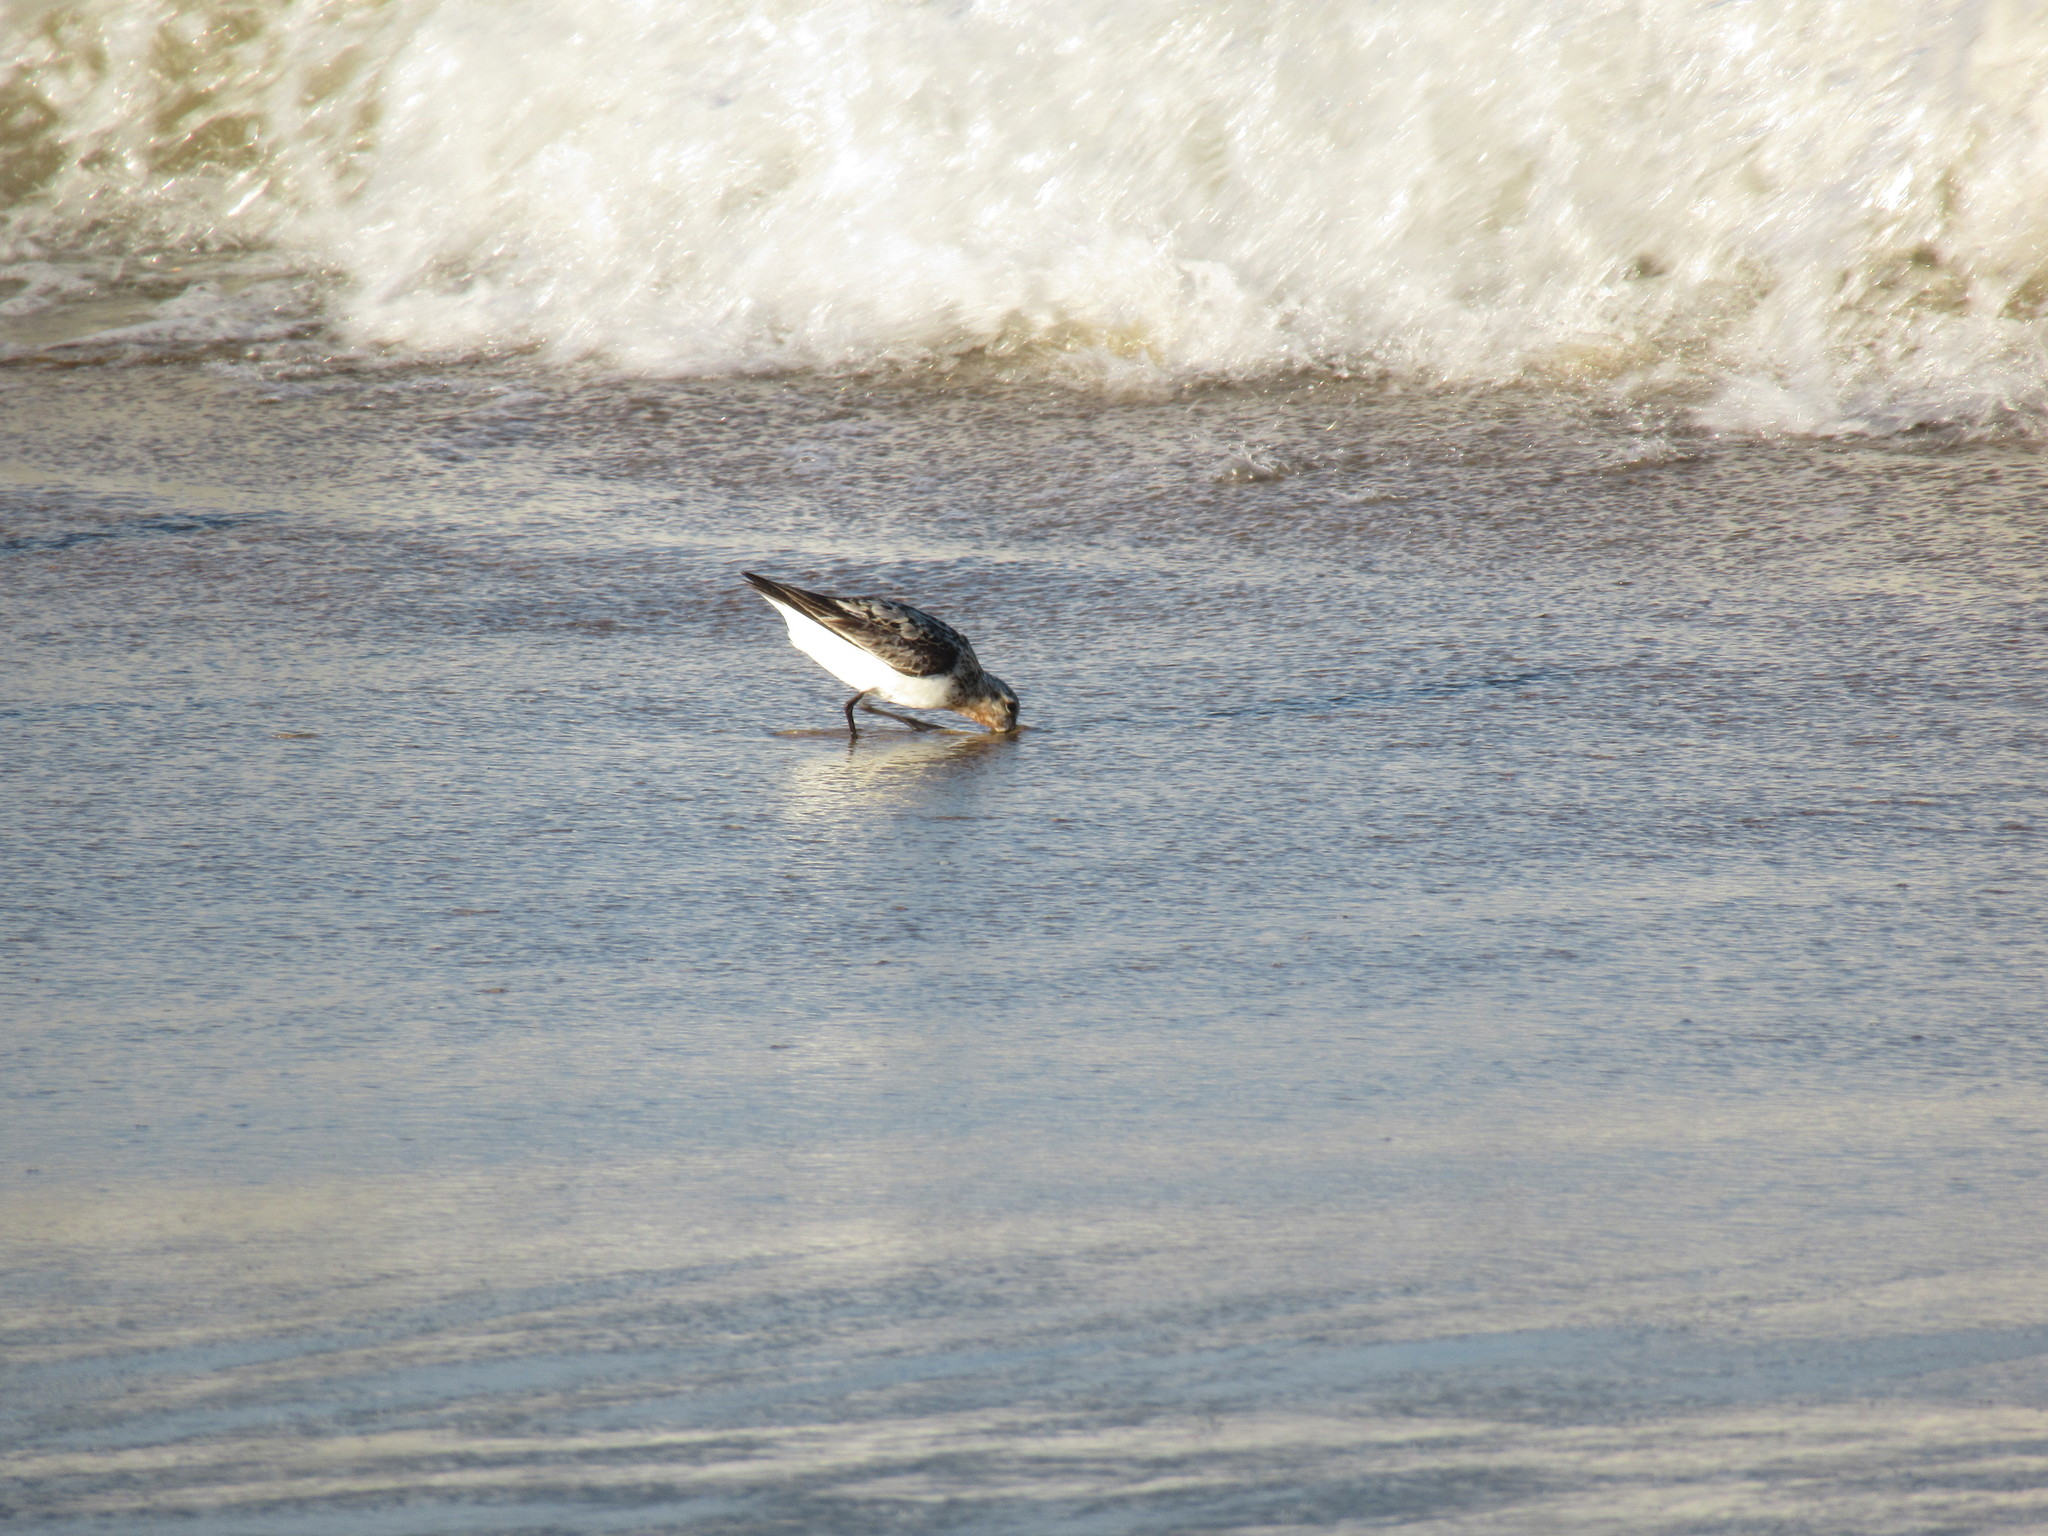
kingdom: Animalia
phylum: Chordata
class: Aves
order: Charadriiformes
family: Scolopacidae
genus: Calidris
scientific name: Calidris alba
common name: Sanderling
